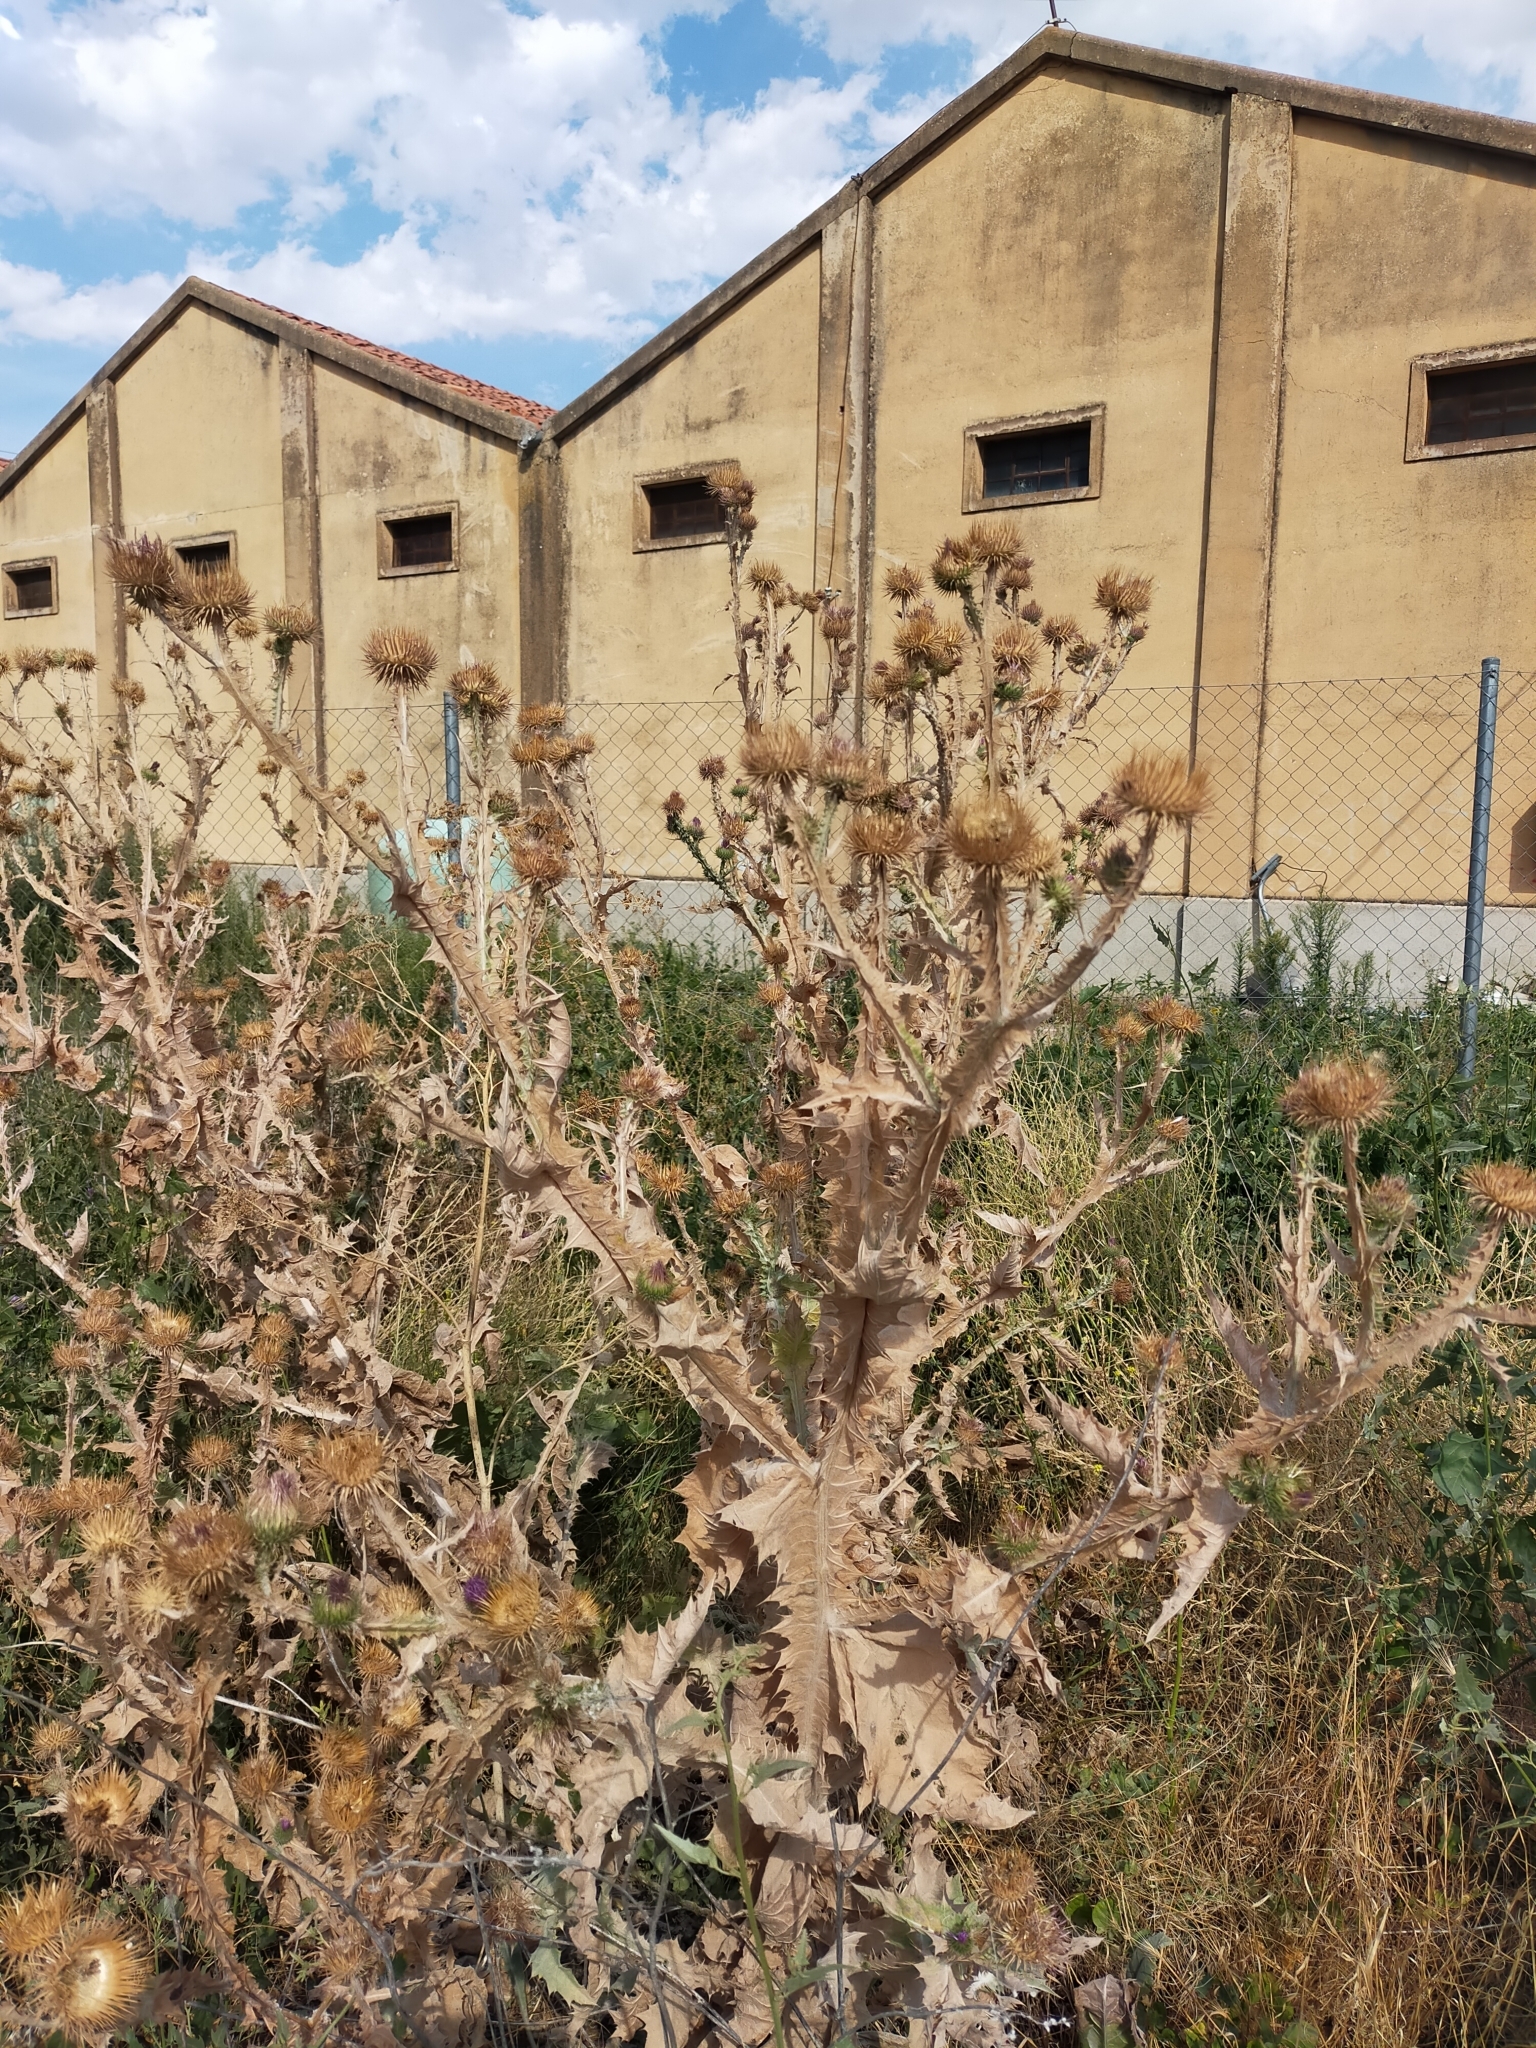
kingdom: Plantae
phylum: Tracheophyta
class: Magnoliopsida
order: Asterales
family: Asteraceae
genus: Onopordum
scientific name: Onopordum acanthium
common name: Scotch thistle
